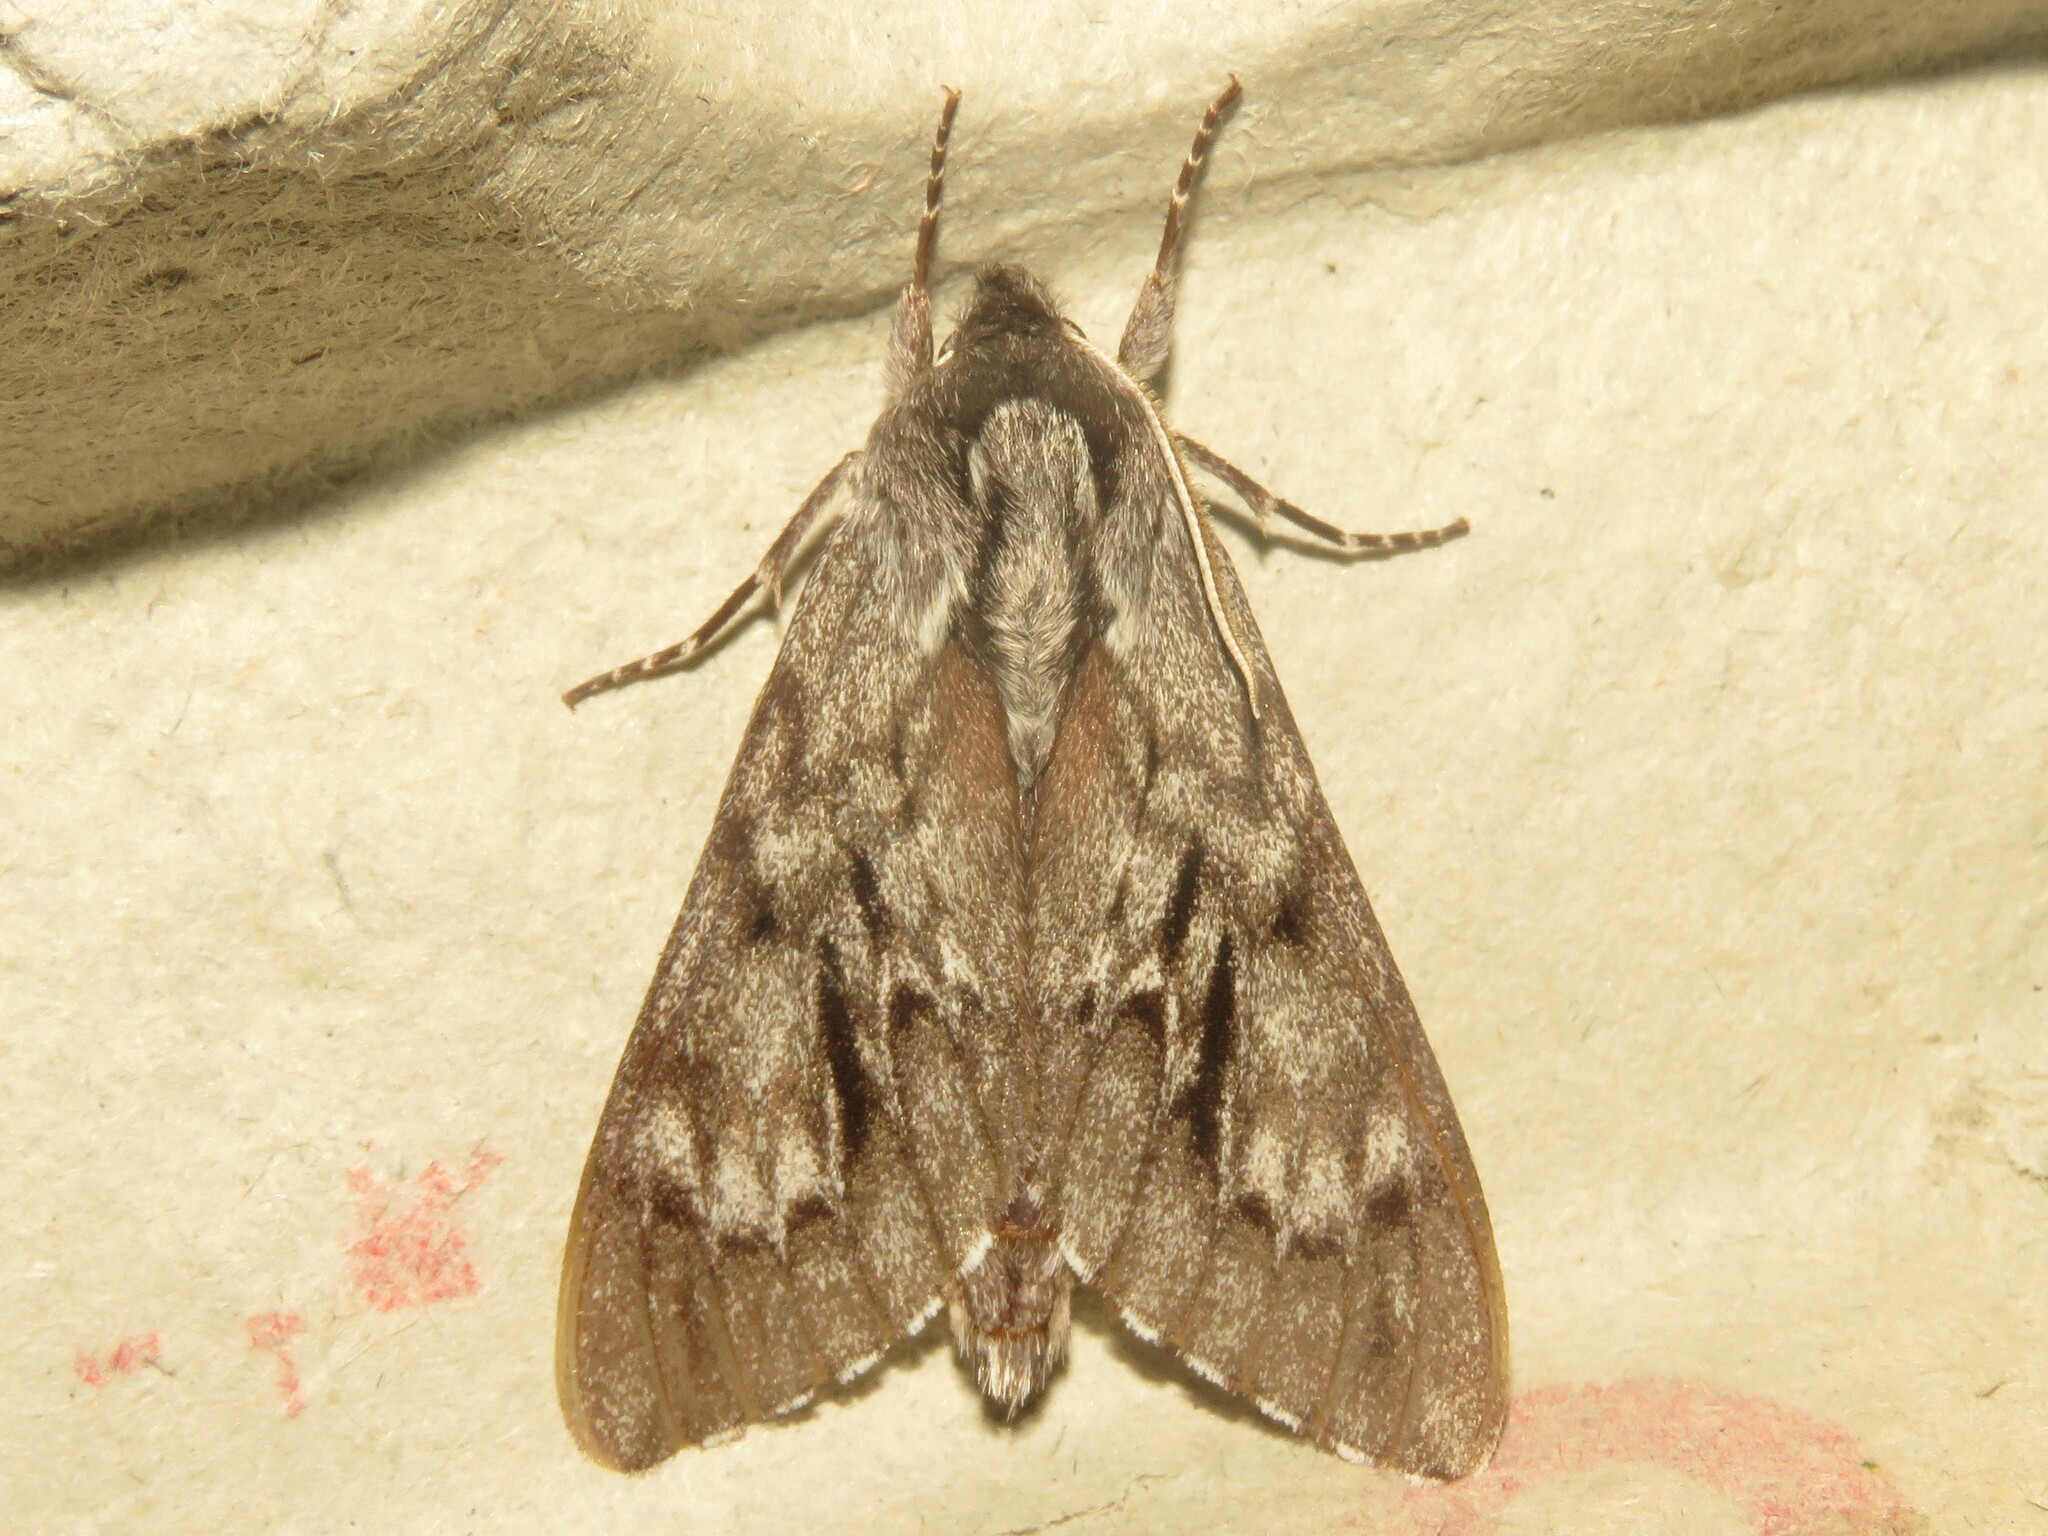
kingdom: Animalia
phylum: Arthropoda
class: Insecta
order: Lepidoptera
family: Sphingidae
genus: Lapara
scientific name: Lapara bombycoides
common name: Northern pine sphinx
